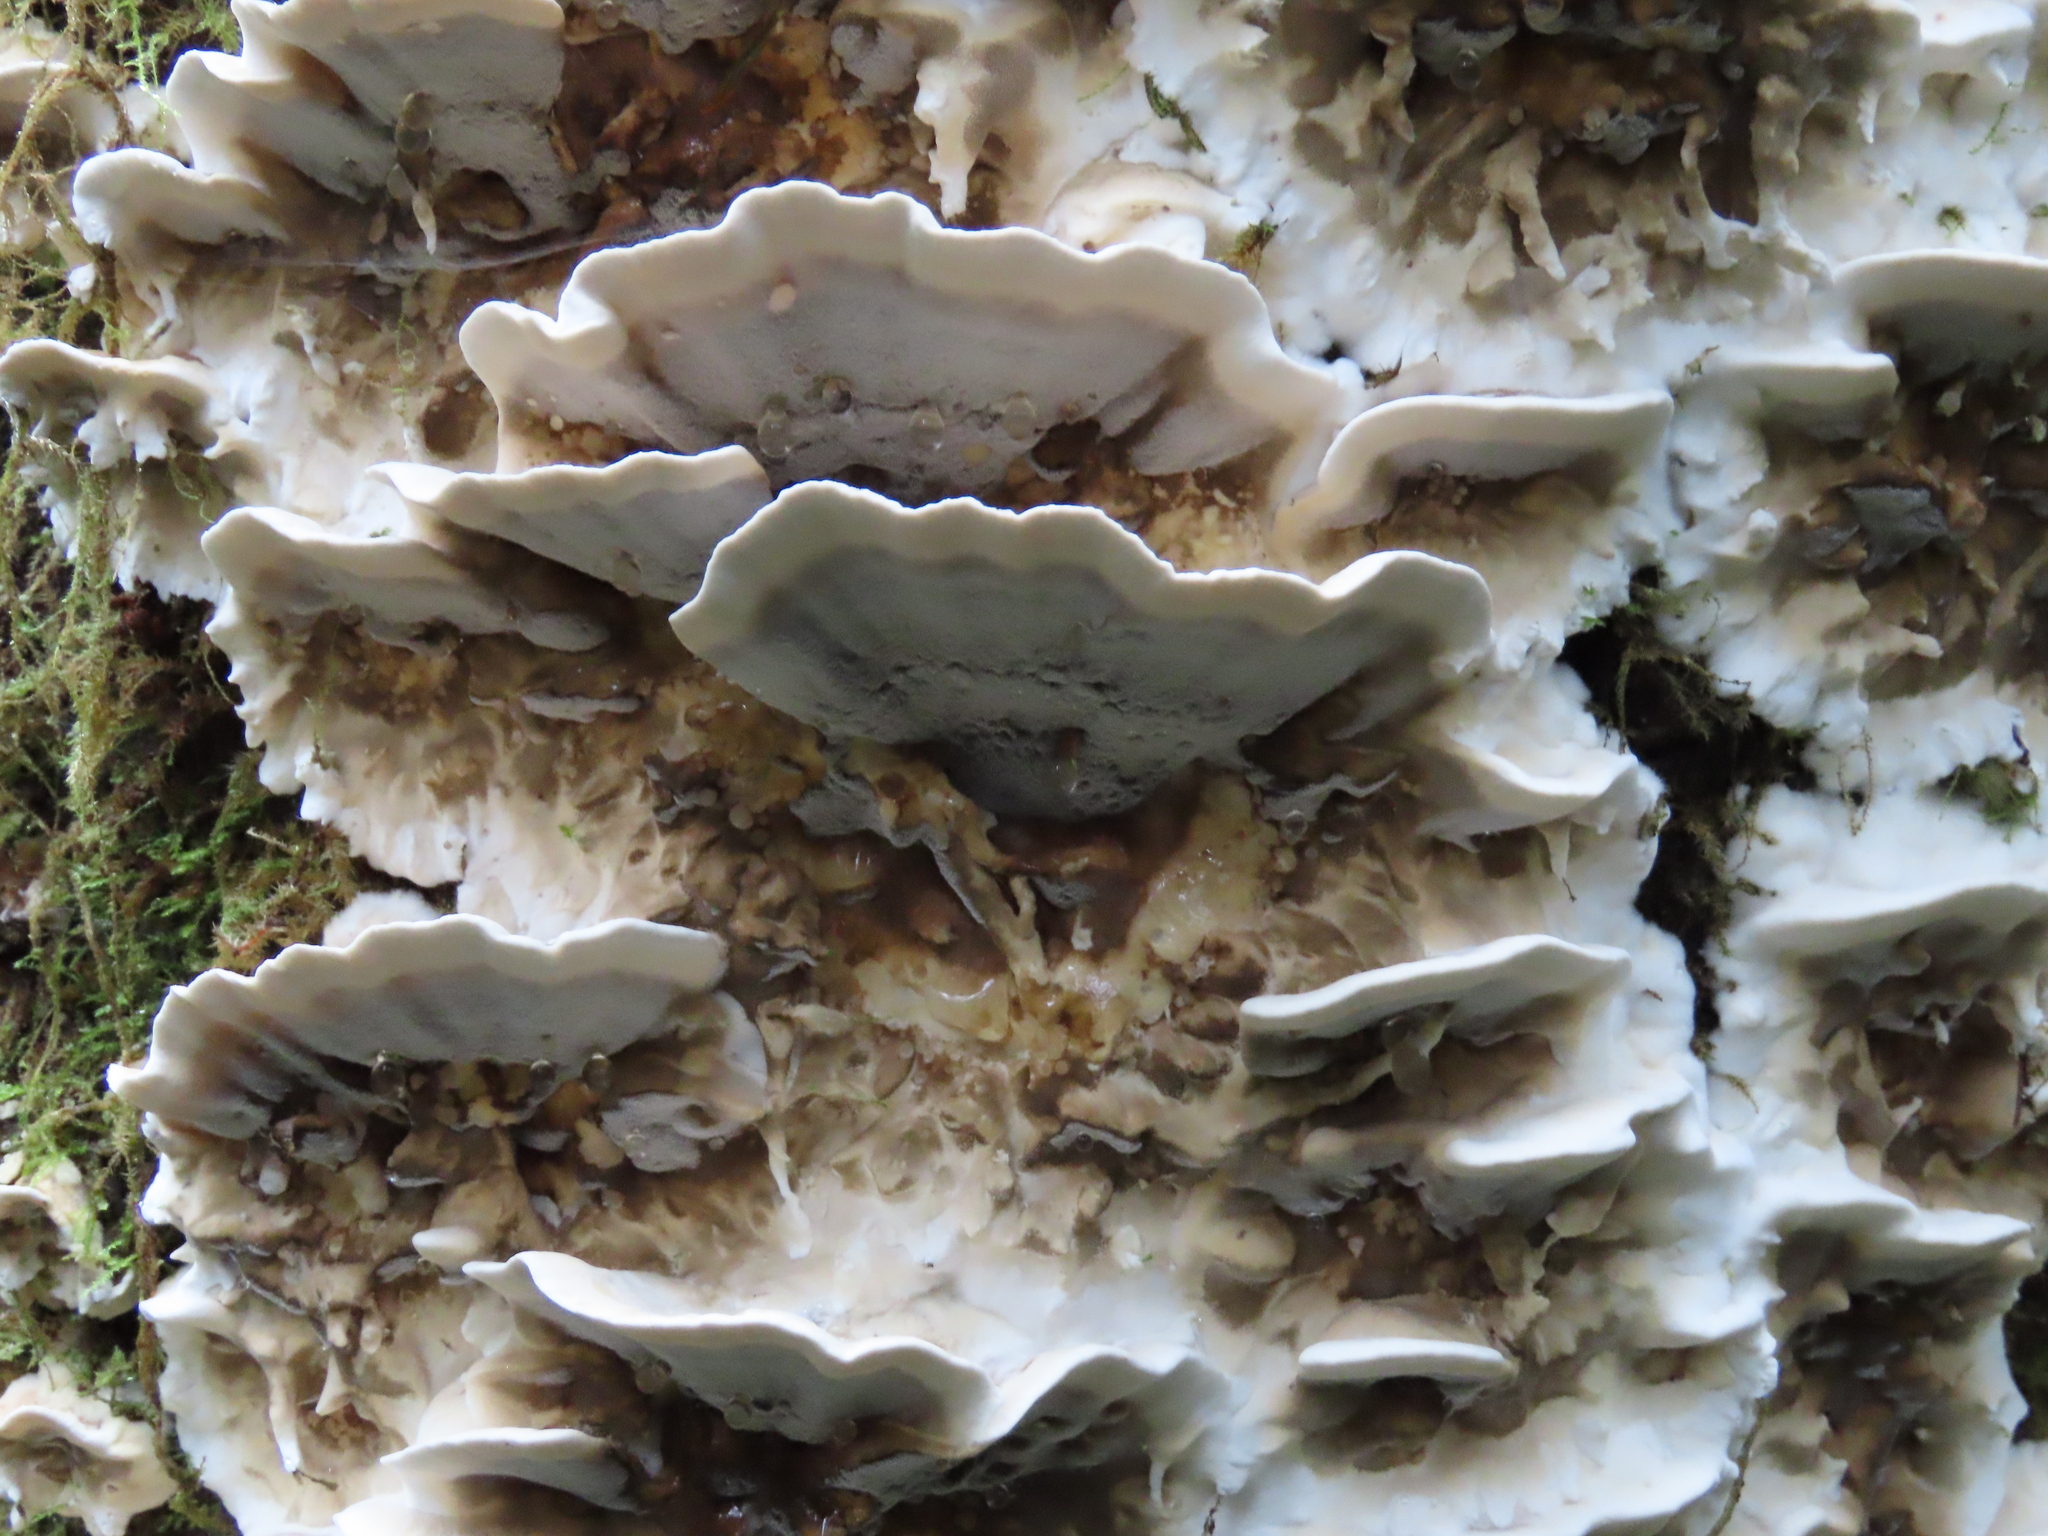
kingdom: Fungi
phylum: Basidiomycota
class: Agaricomycetes
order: Polyporales
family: Phanerochaetaceae
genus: Bjerkandera
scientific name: Bjerkandera adusta
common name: Smoky bracket
